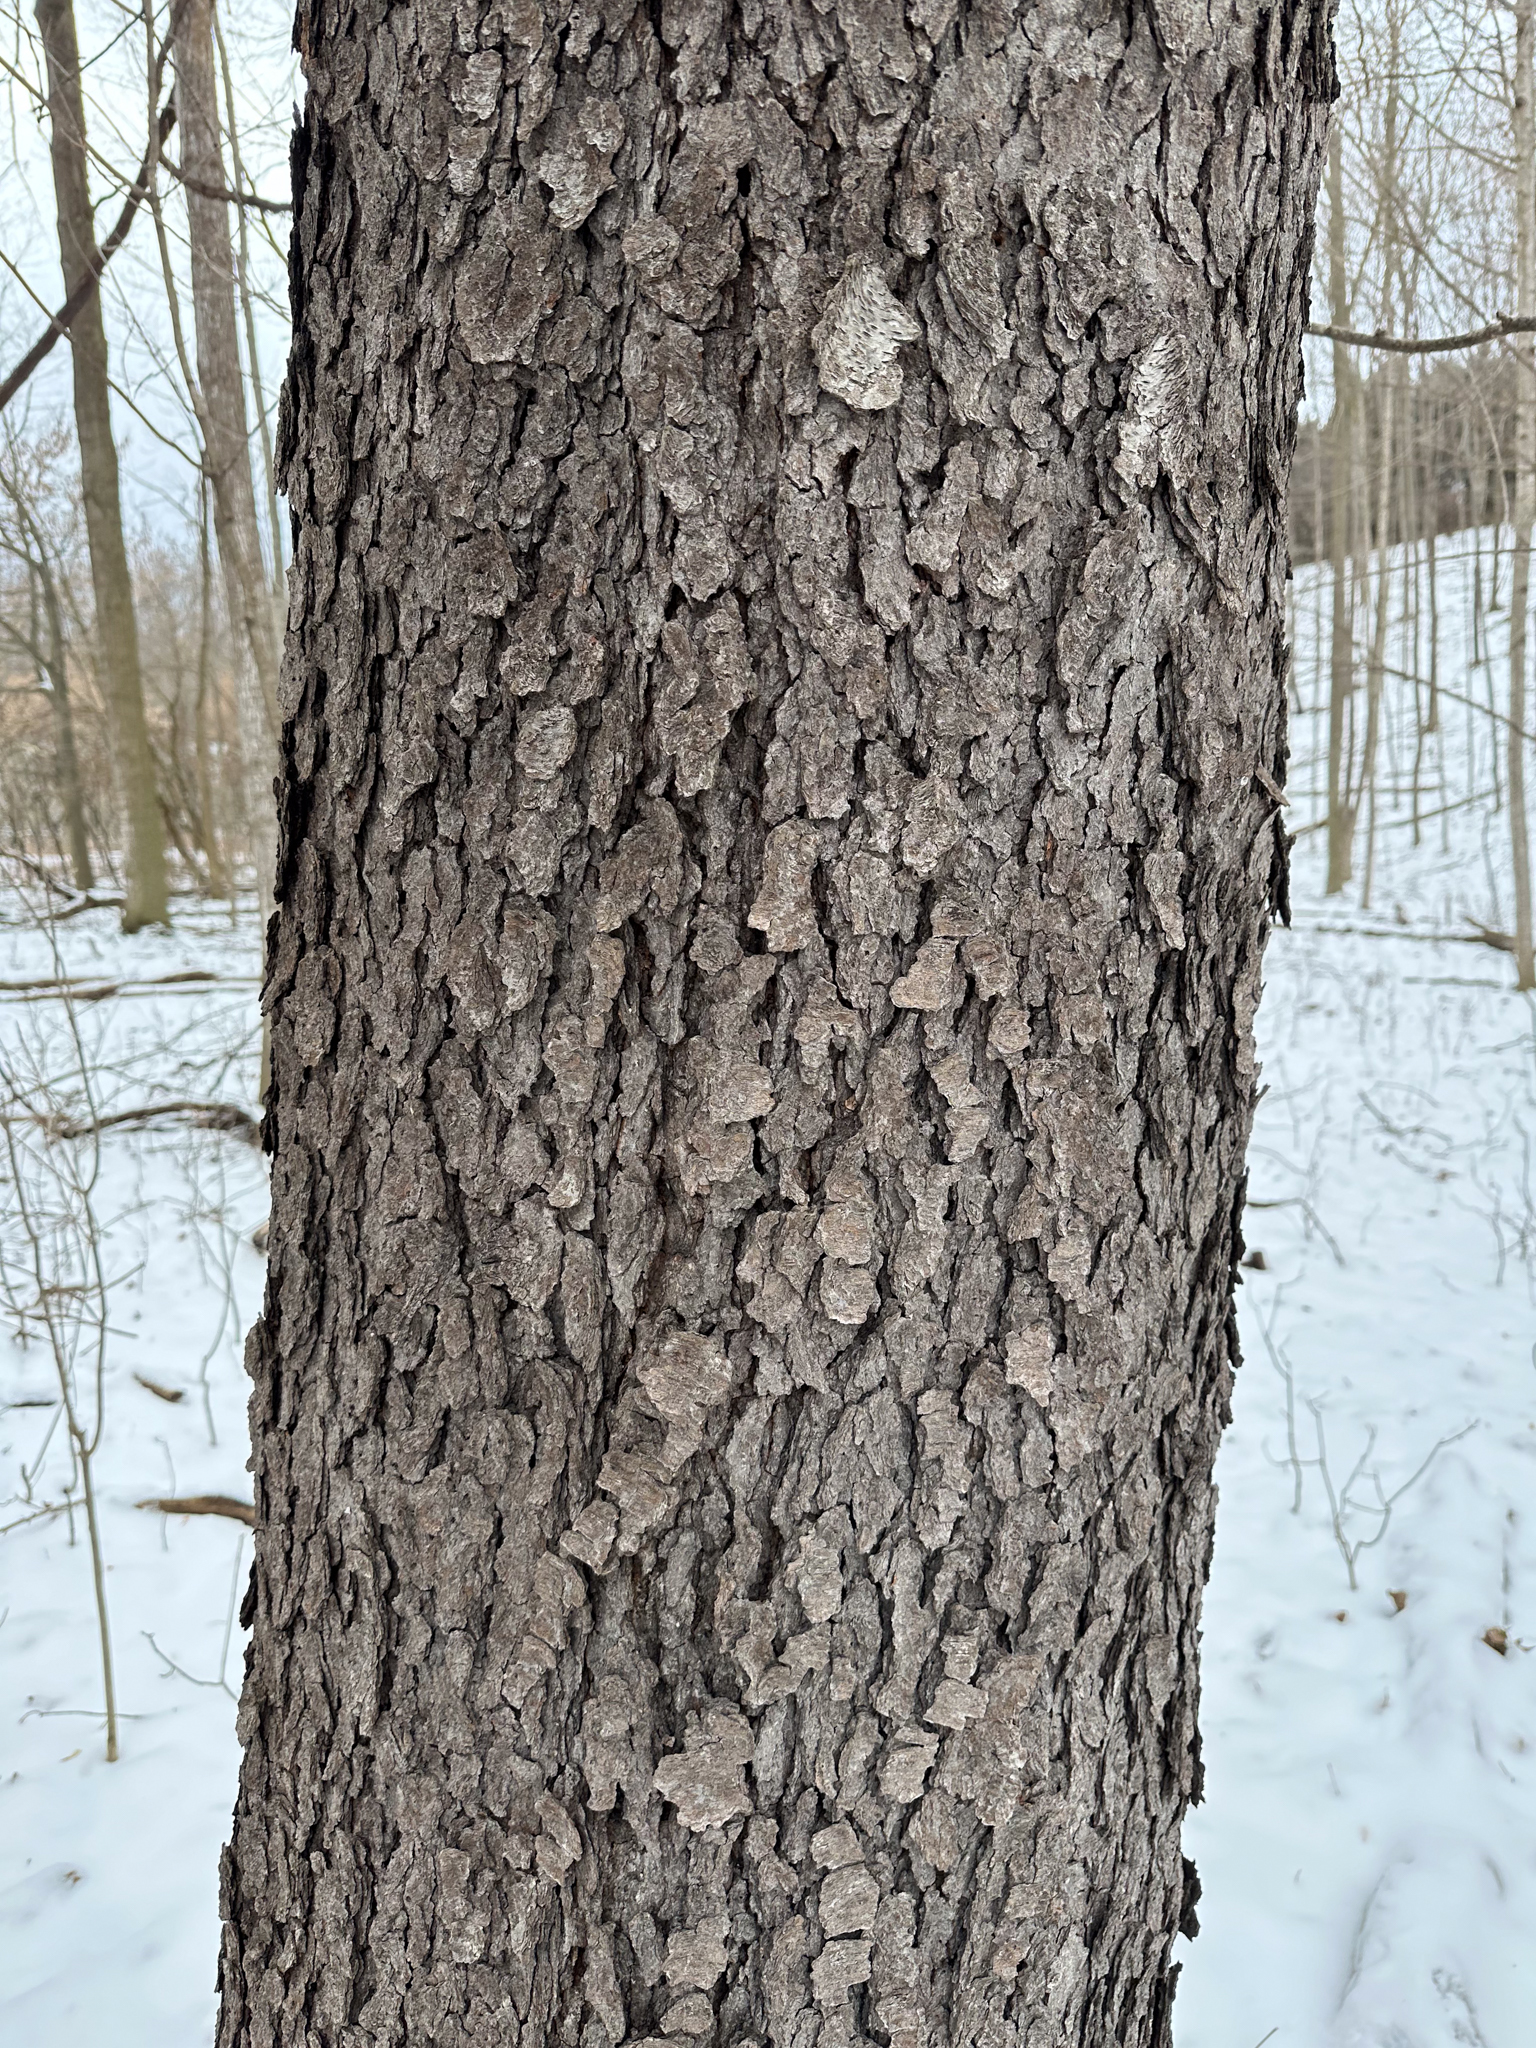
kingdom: Plantae
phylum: Tracheophyta
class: Magnoliopsida
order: Rosales
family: Rosaceae
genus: Prunus
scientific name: Prunus serotina
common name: Black cherry
